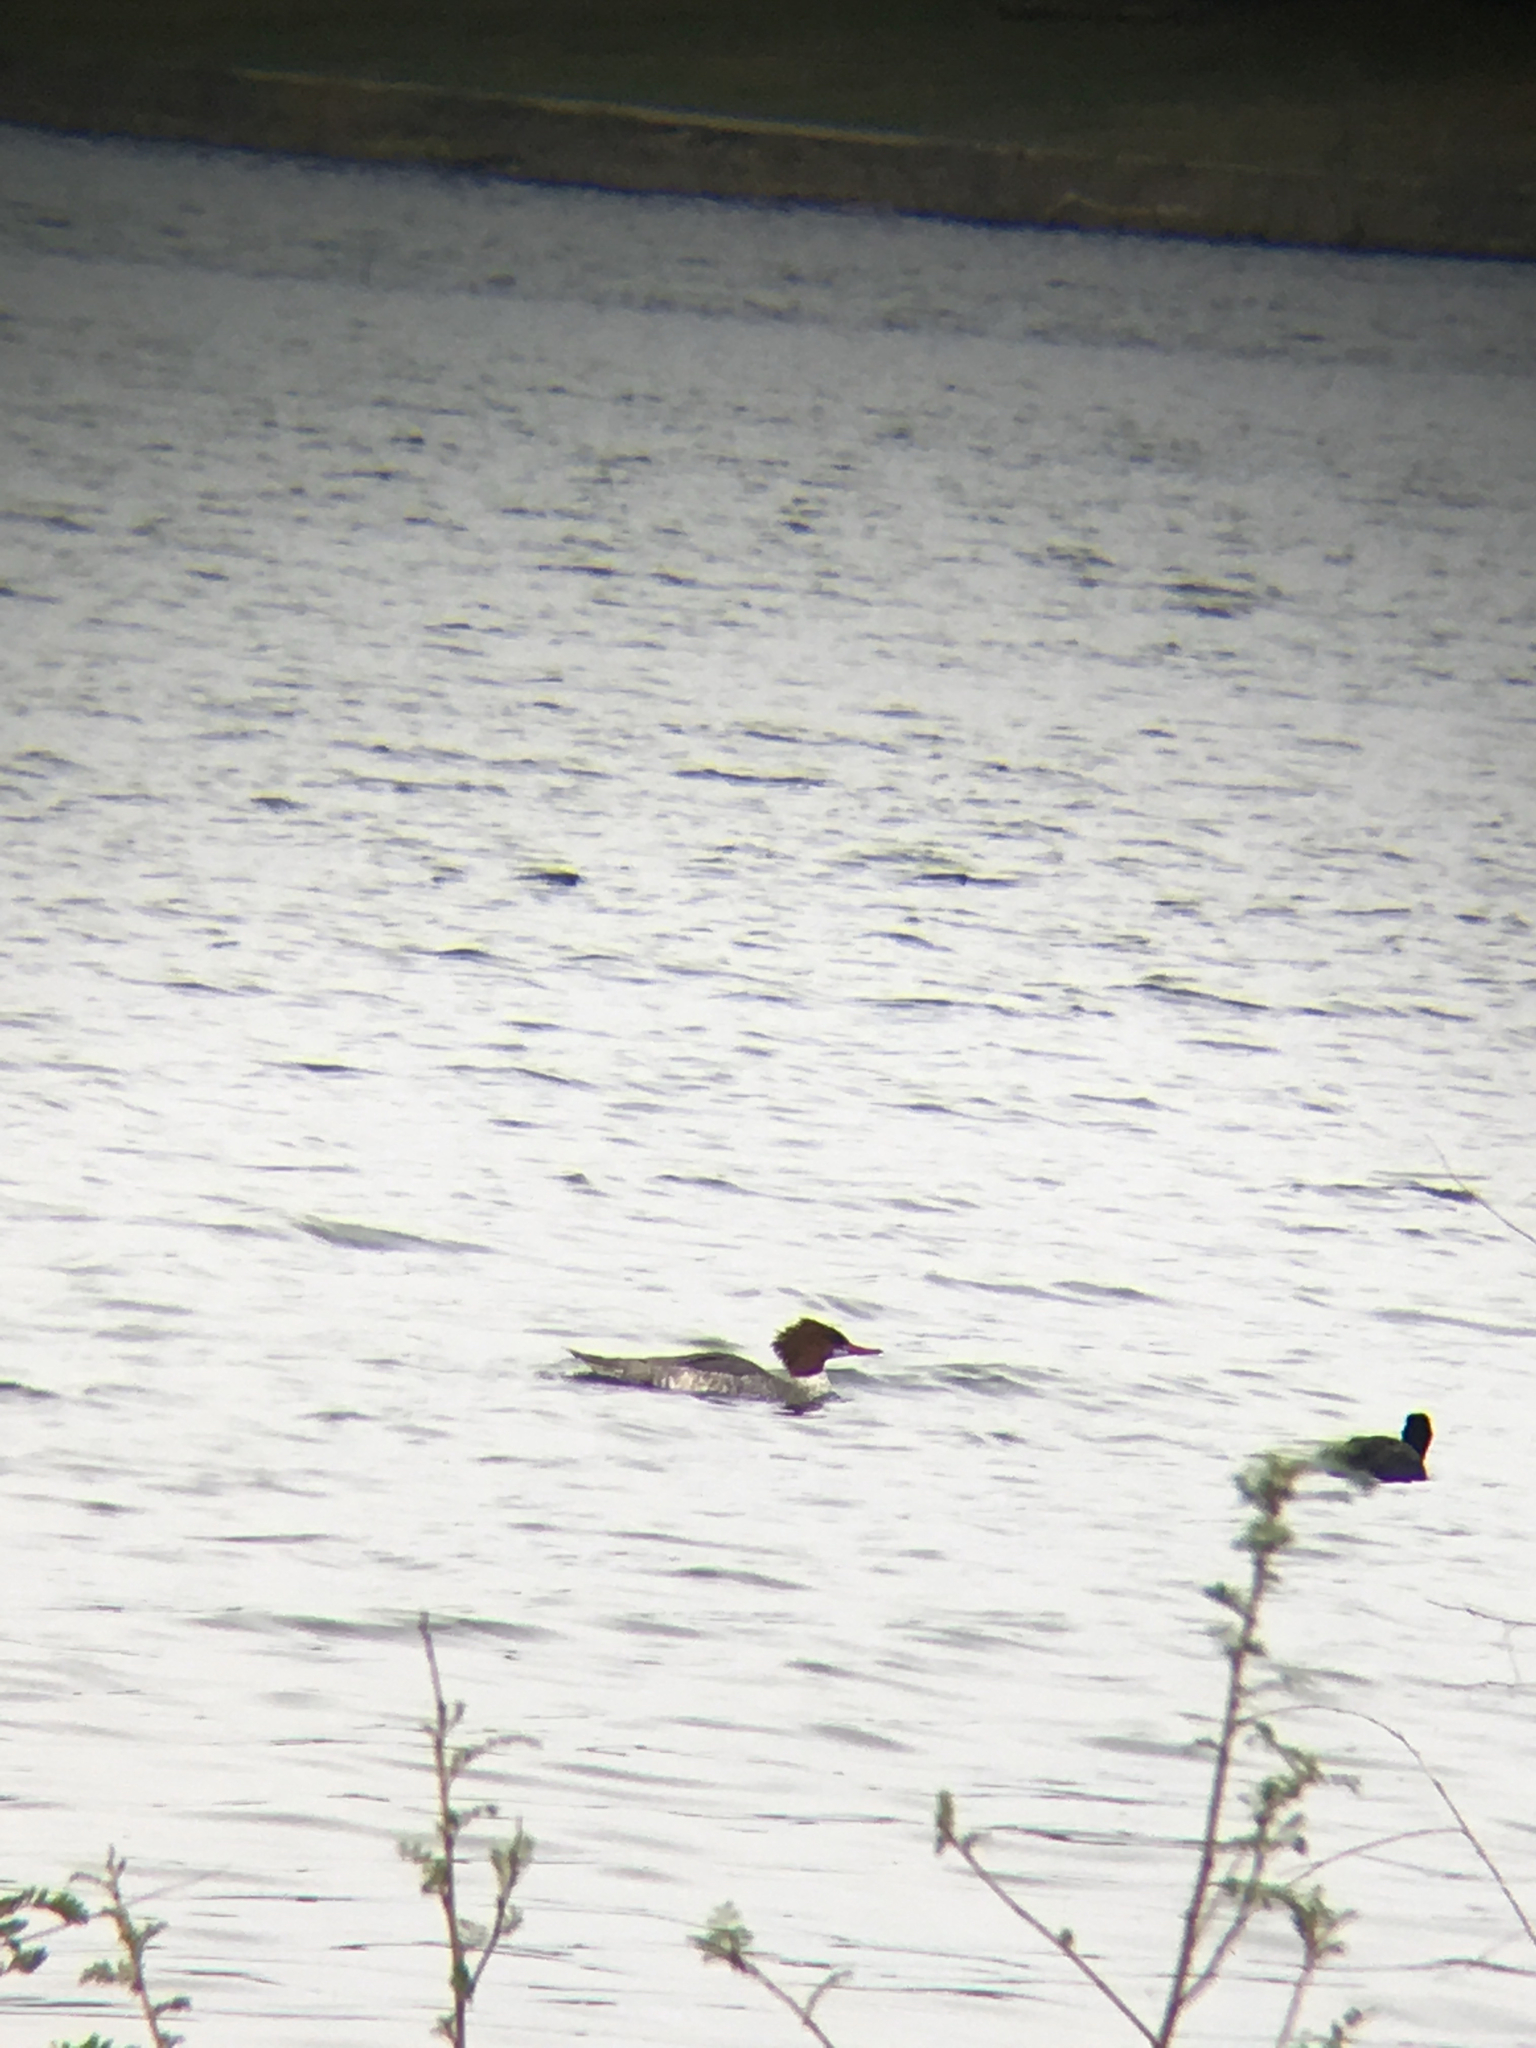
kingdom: Animalia
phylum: Chordata
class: Aves
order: Anseriformes
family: Anatidae
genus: Mergus
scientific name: Mergus merganser
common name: Common merganser
